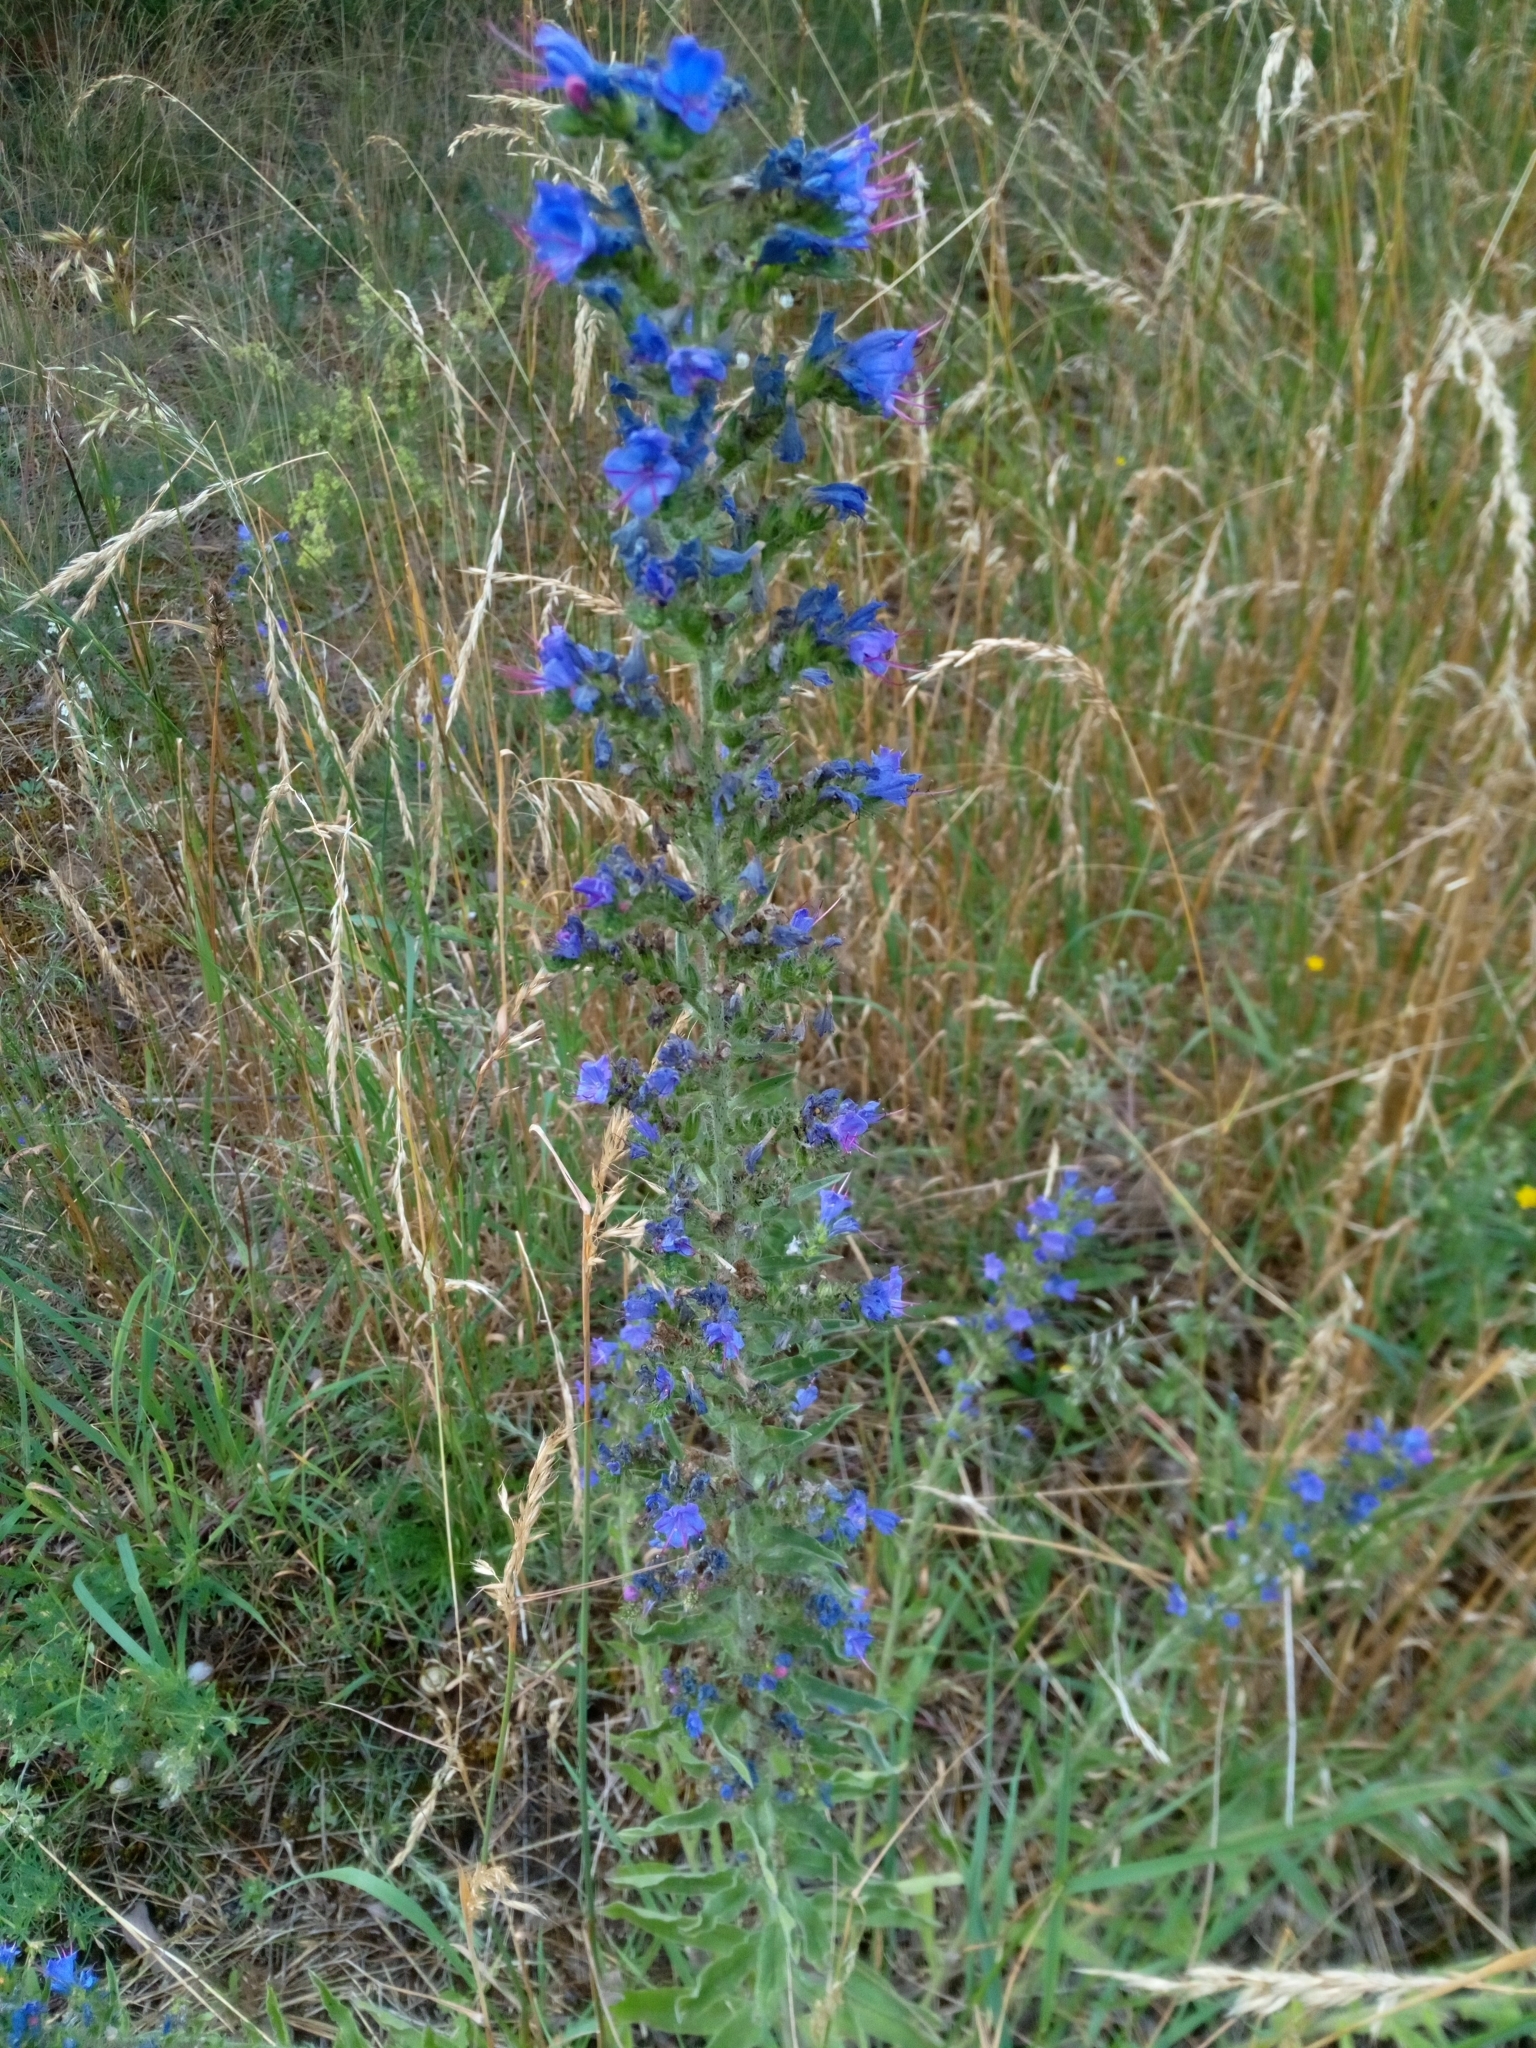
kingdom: Plantae
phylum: Tracheophyta
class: Magnoliopsida
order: Boraginales
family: Boraginaceae
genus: Echium
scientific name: Echium vulgare
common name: Common viper's bugloss
